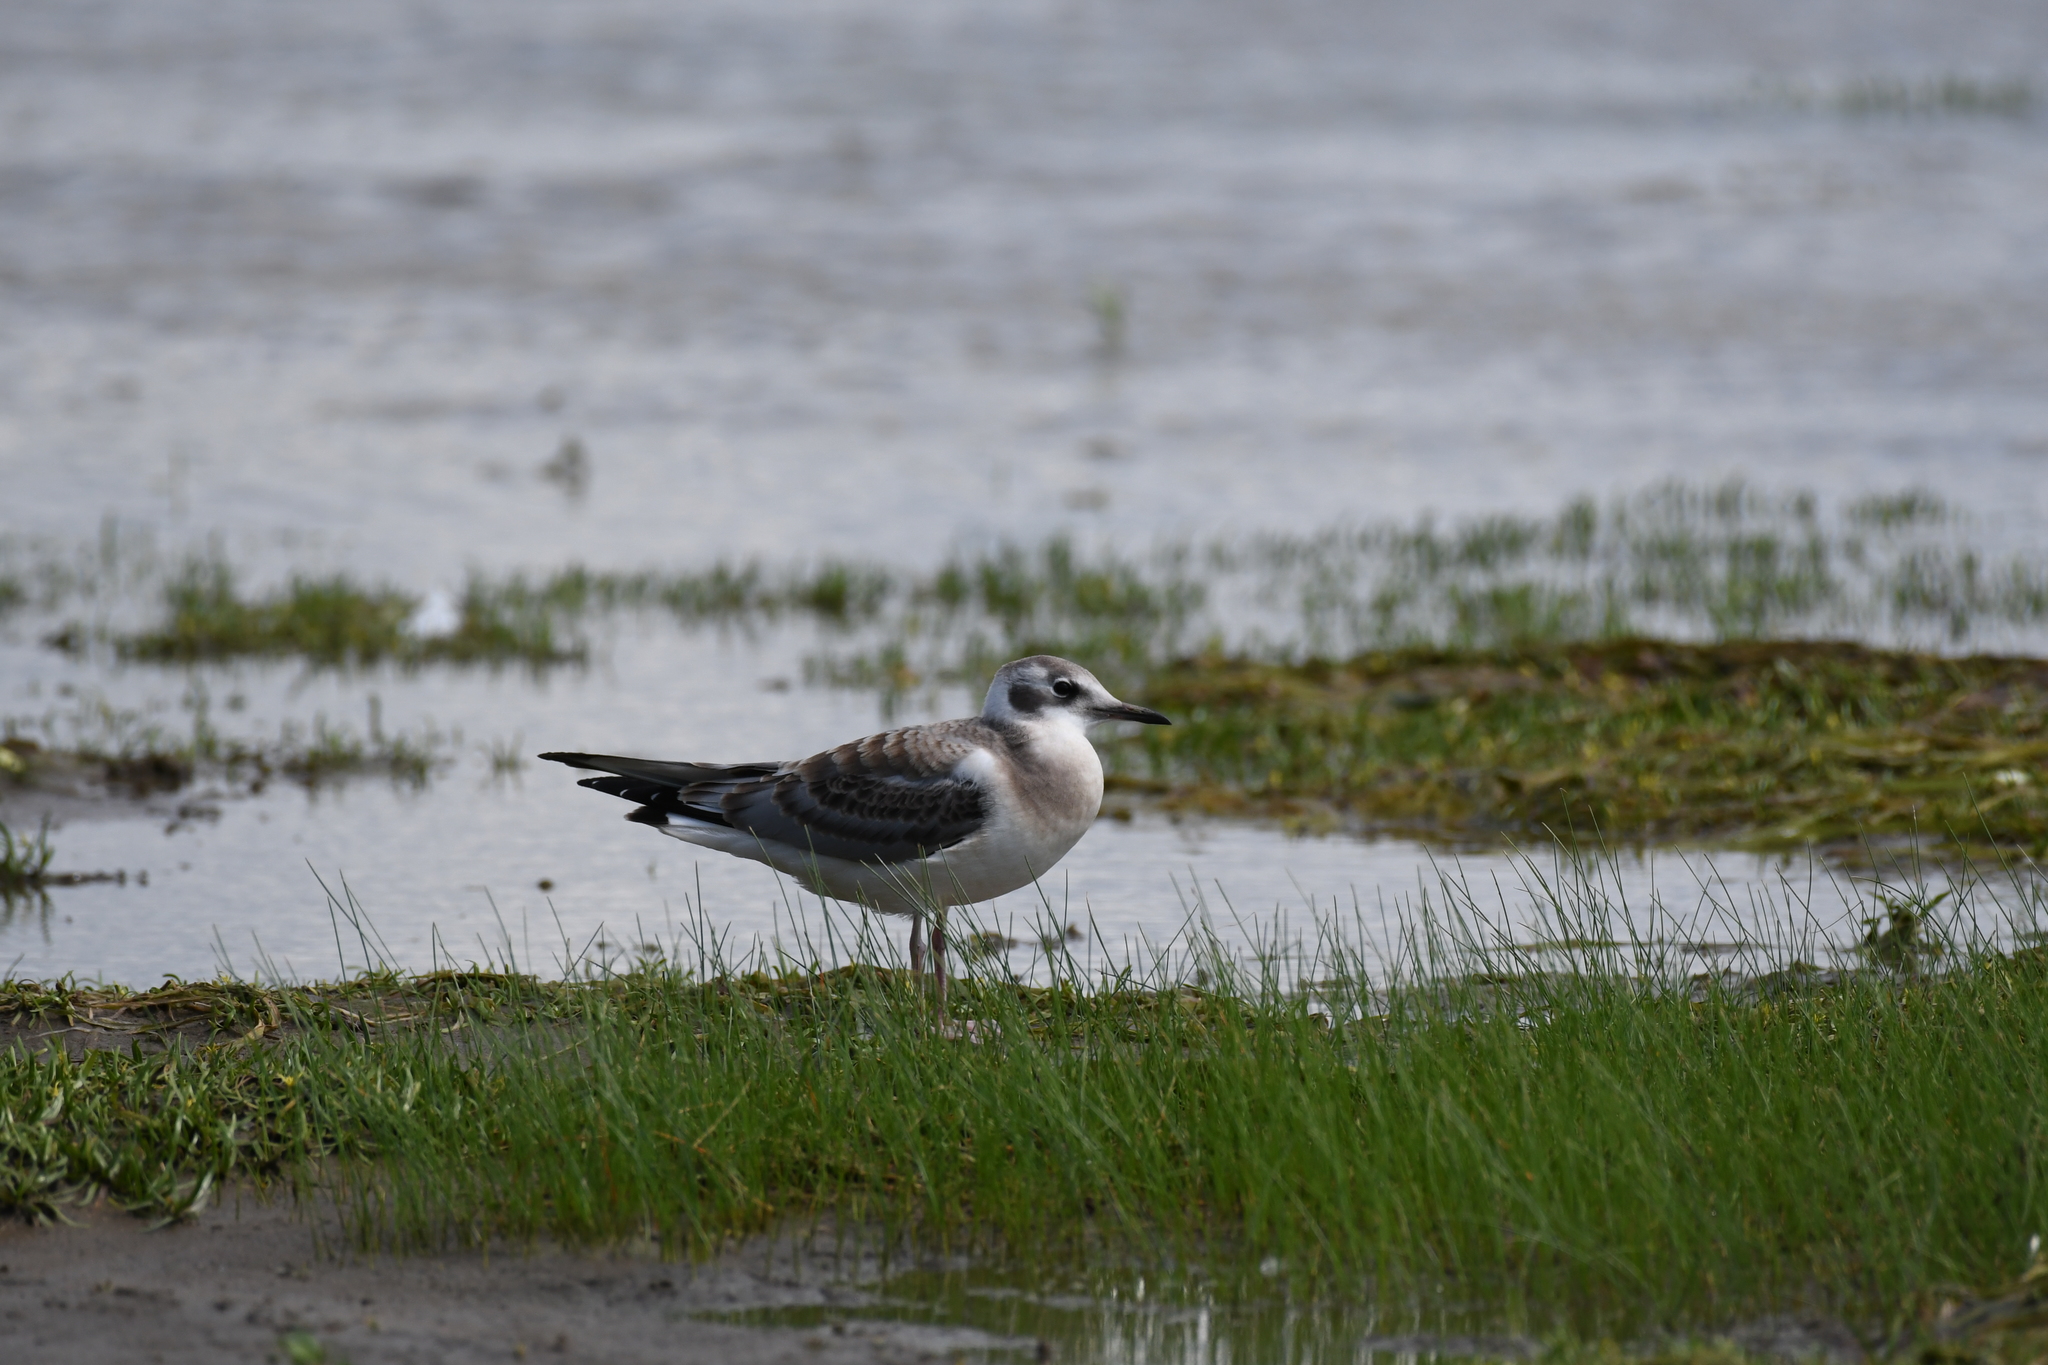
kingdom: Animalia
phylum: Chordata
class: Aves
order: Charadriiformes
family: Laridae
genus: Chroicocephalus
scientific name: Chroicocephalus philadelphia
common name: Bonaparte's gull
